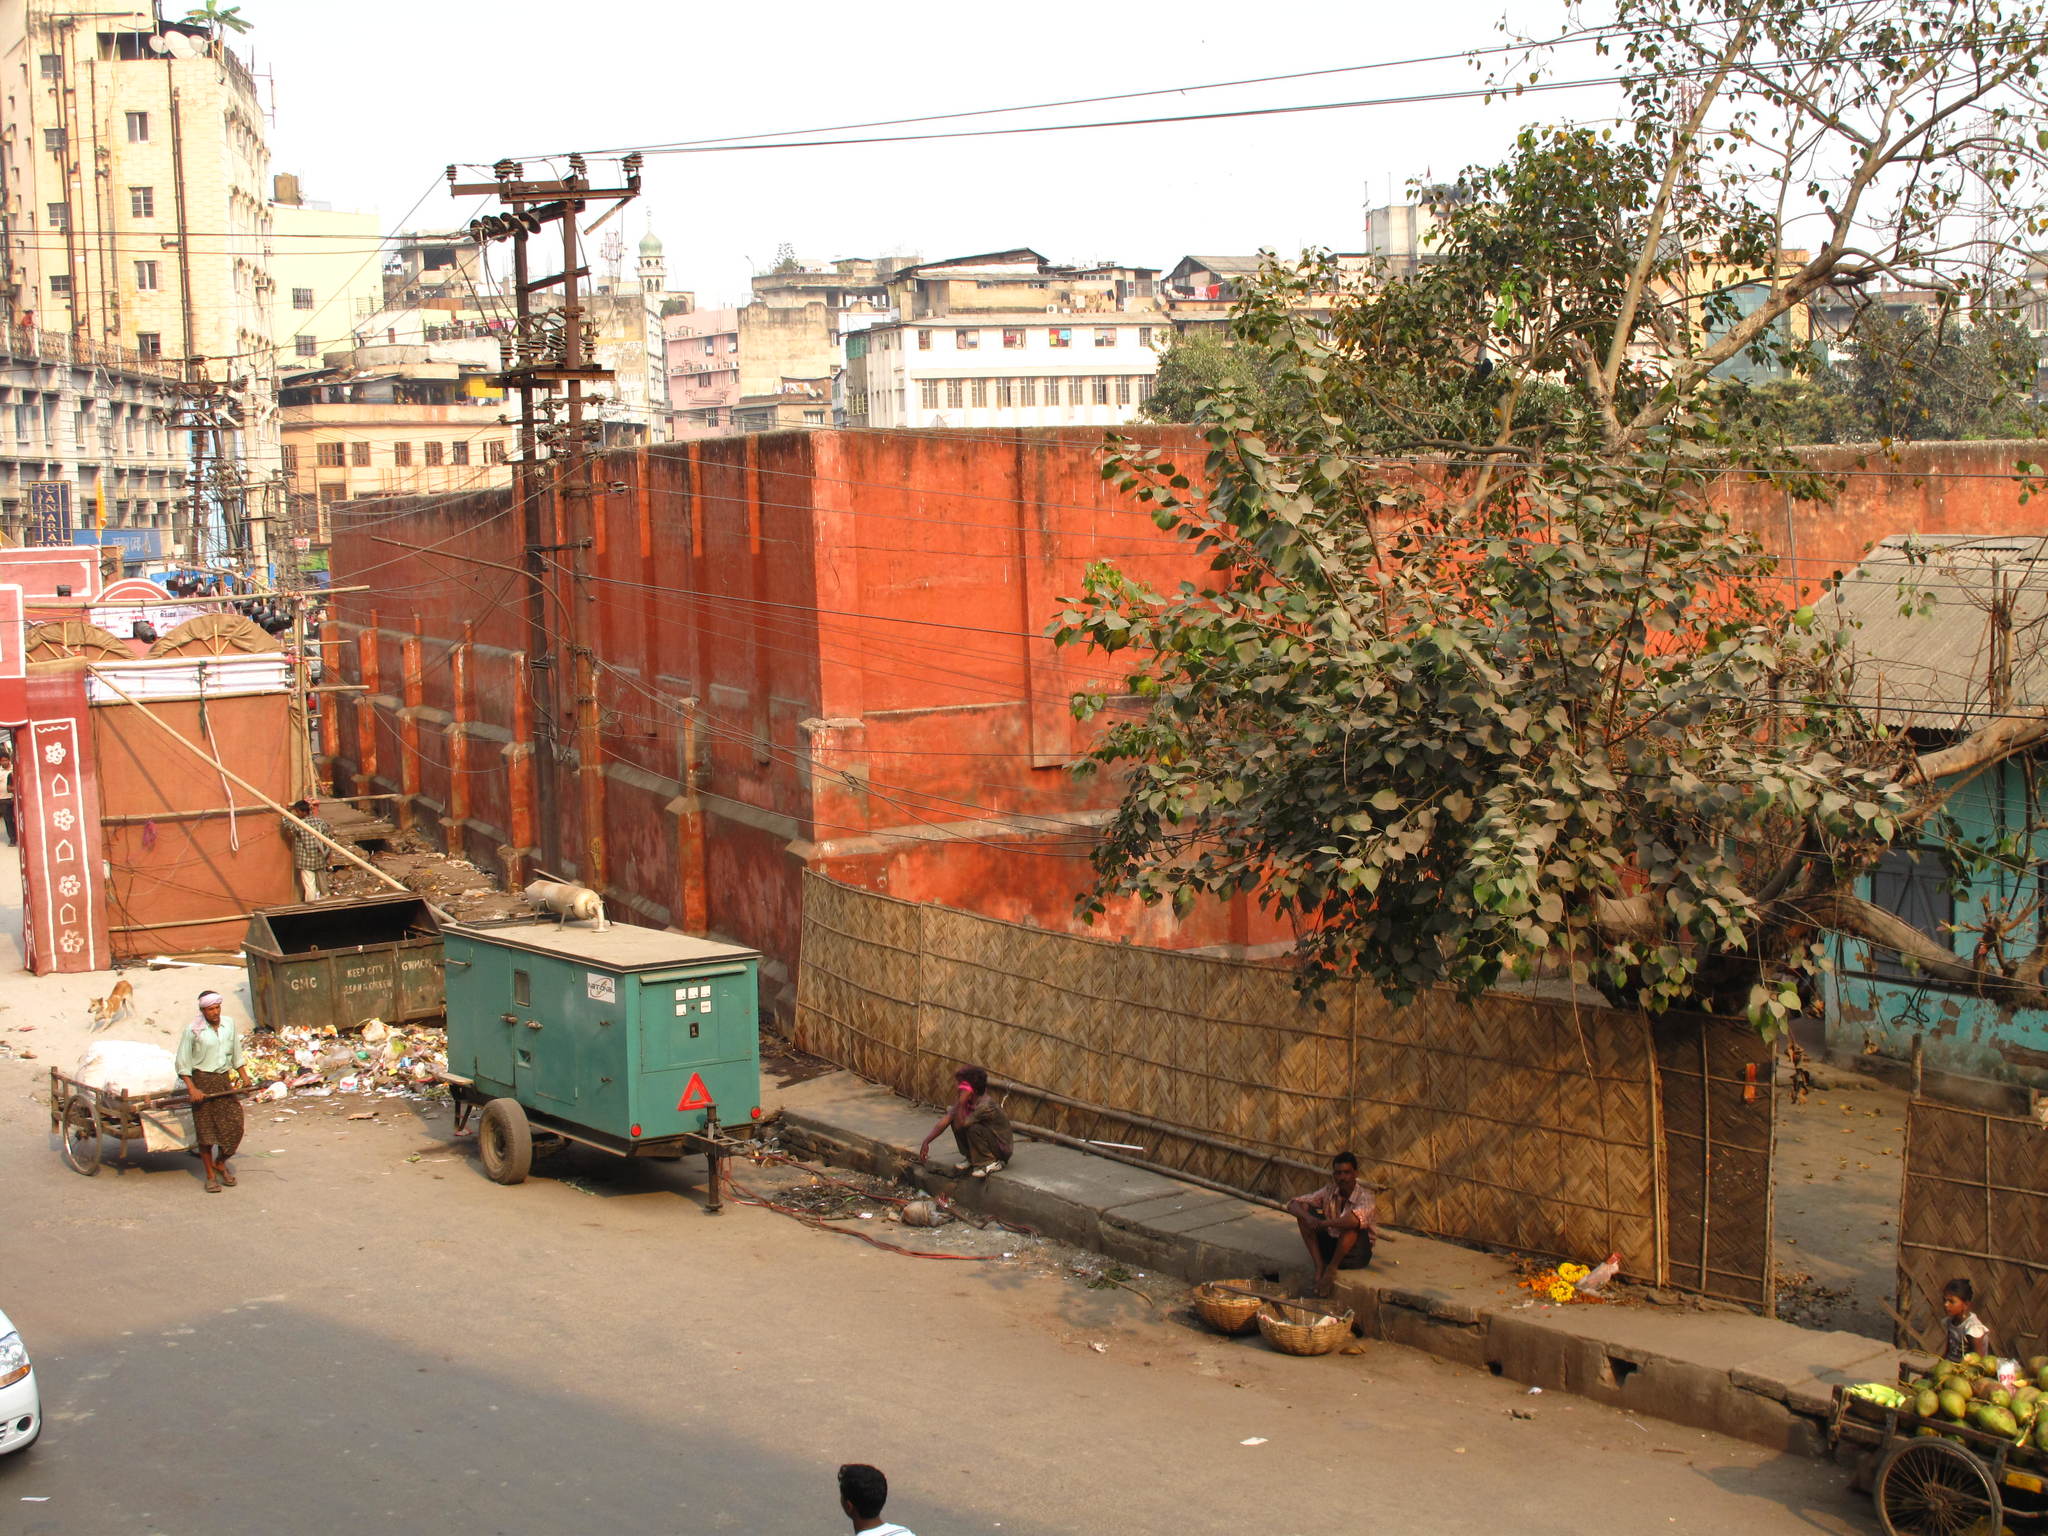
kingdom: Plantae
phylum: Tracheophyta
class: Magnoliopsida
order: Rosales
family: Moraceae
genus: Ficus
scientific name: Ficus religiosa
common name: Bodhi tree
